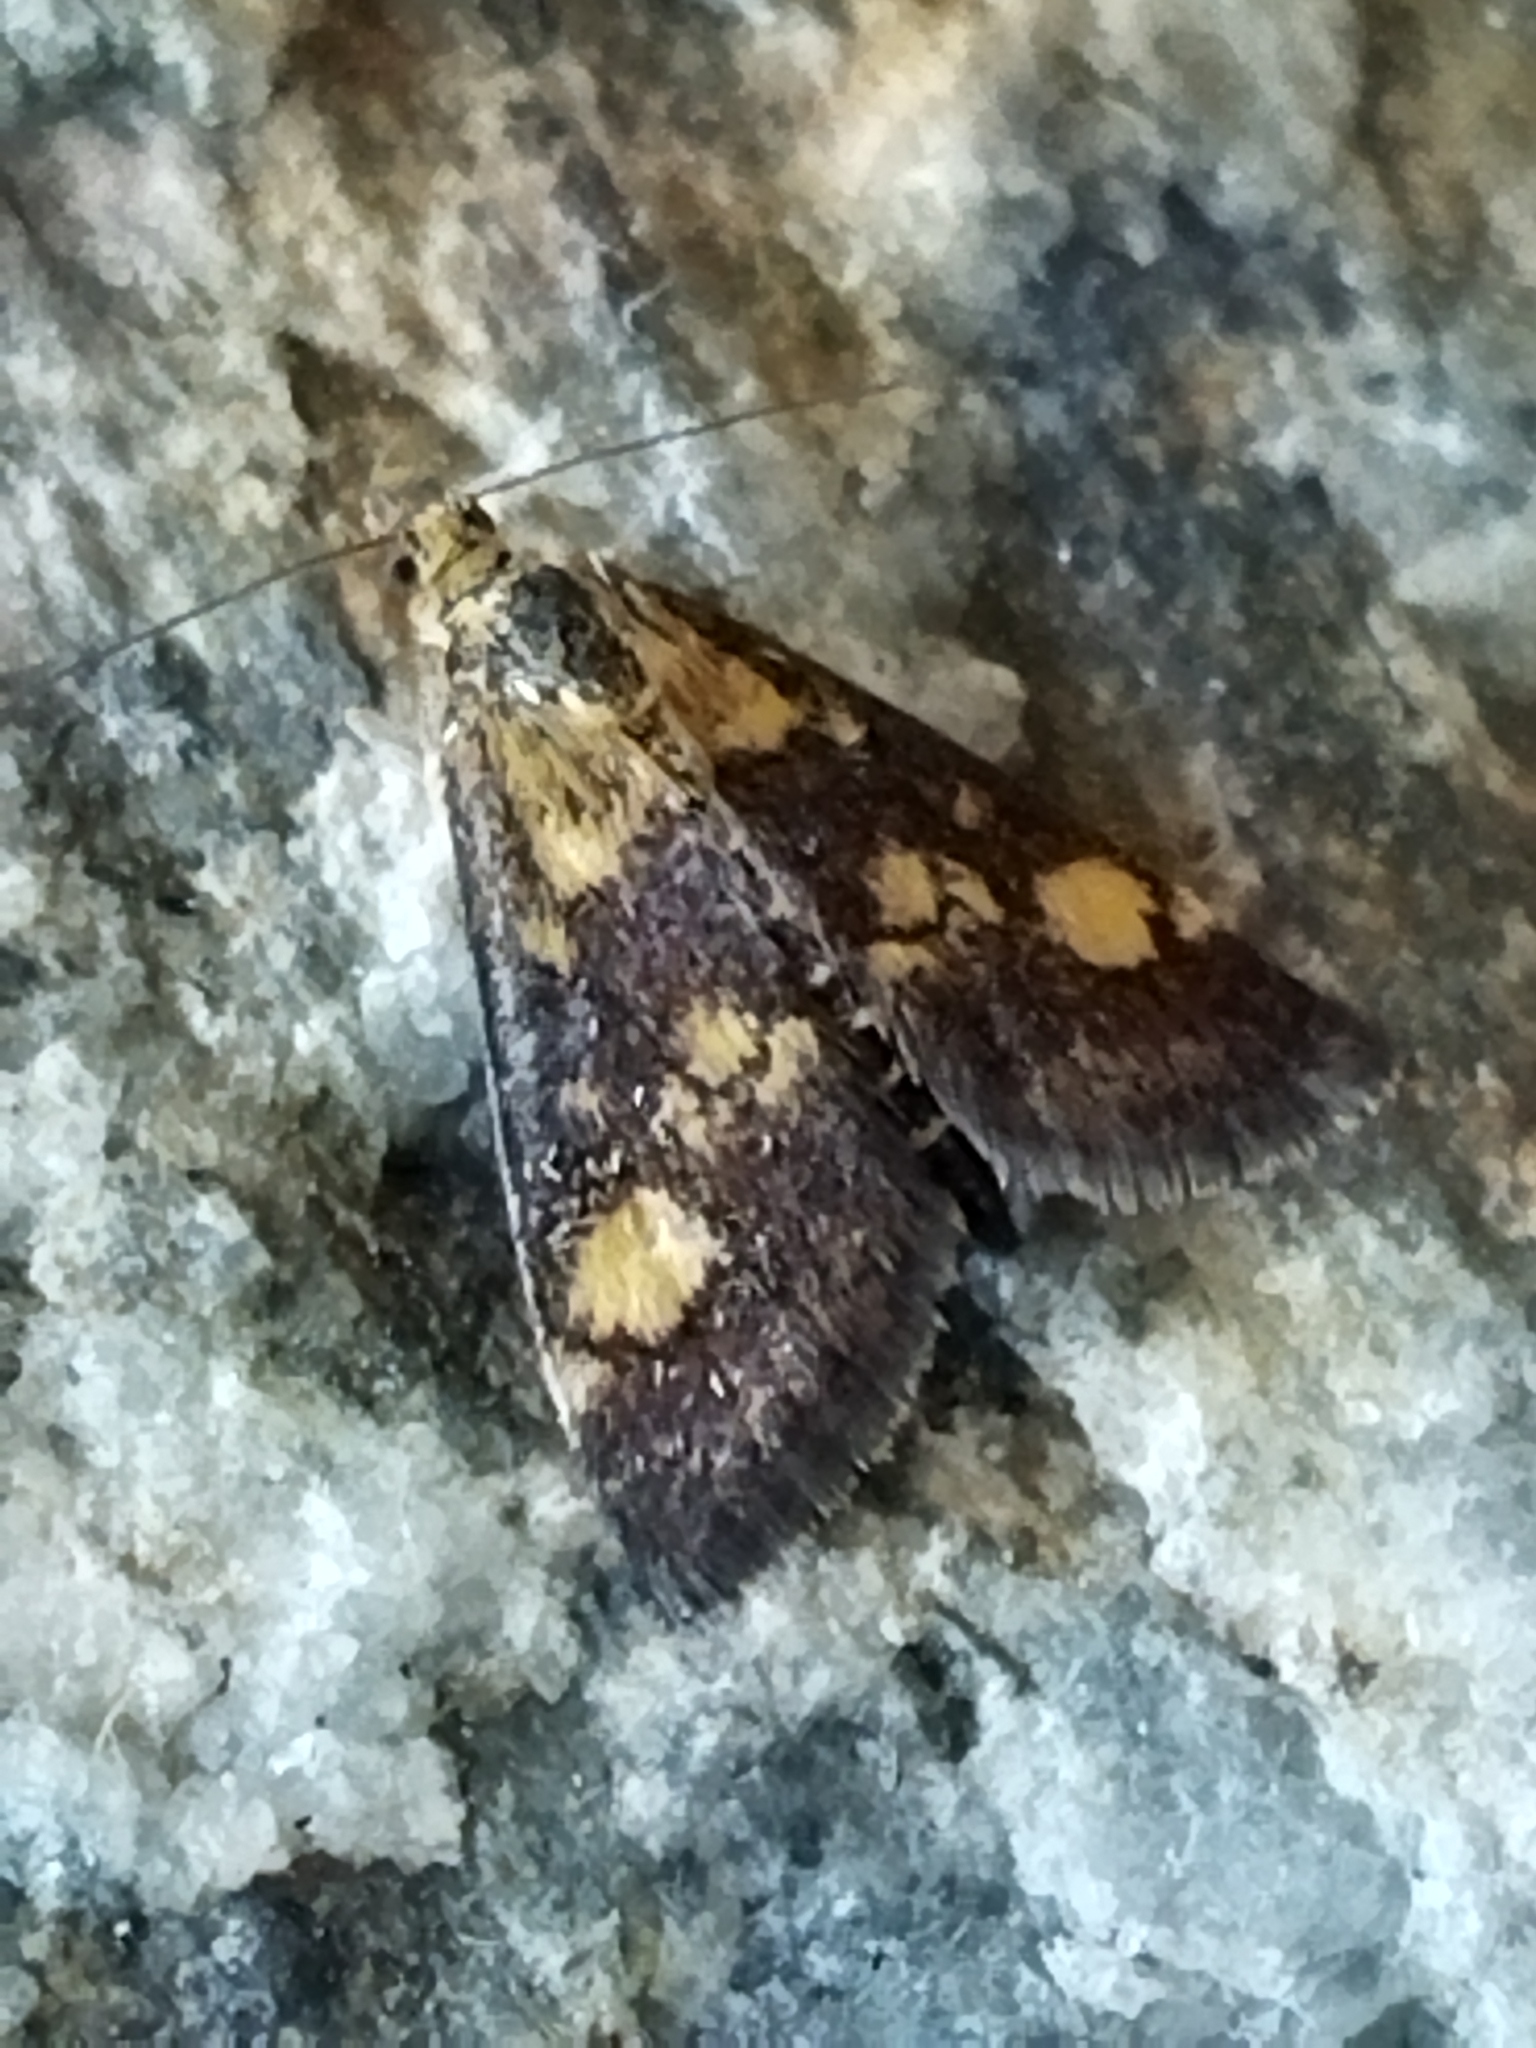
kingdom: Animalia
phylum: Arthropoda
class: Insecta
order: Lepidoptera
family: Crambidae
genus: Pyrausta
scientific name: Pyrausta aurata
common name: Small purple & gold
